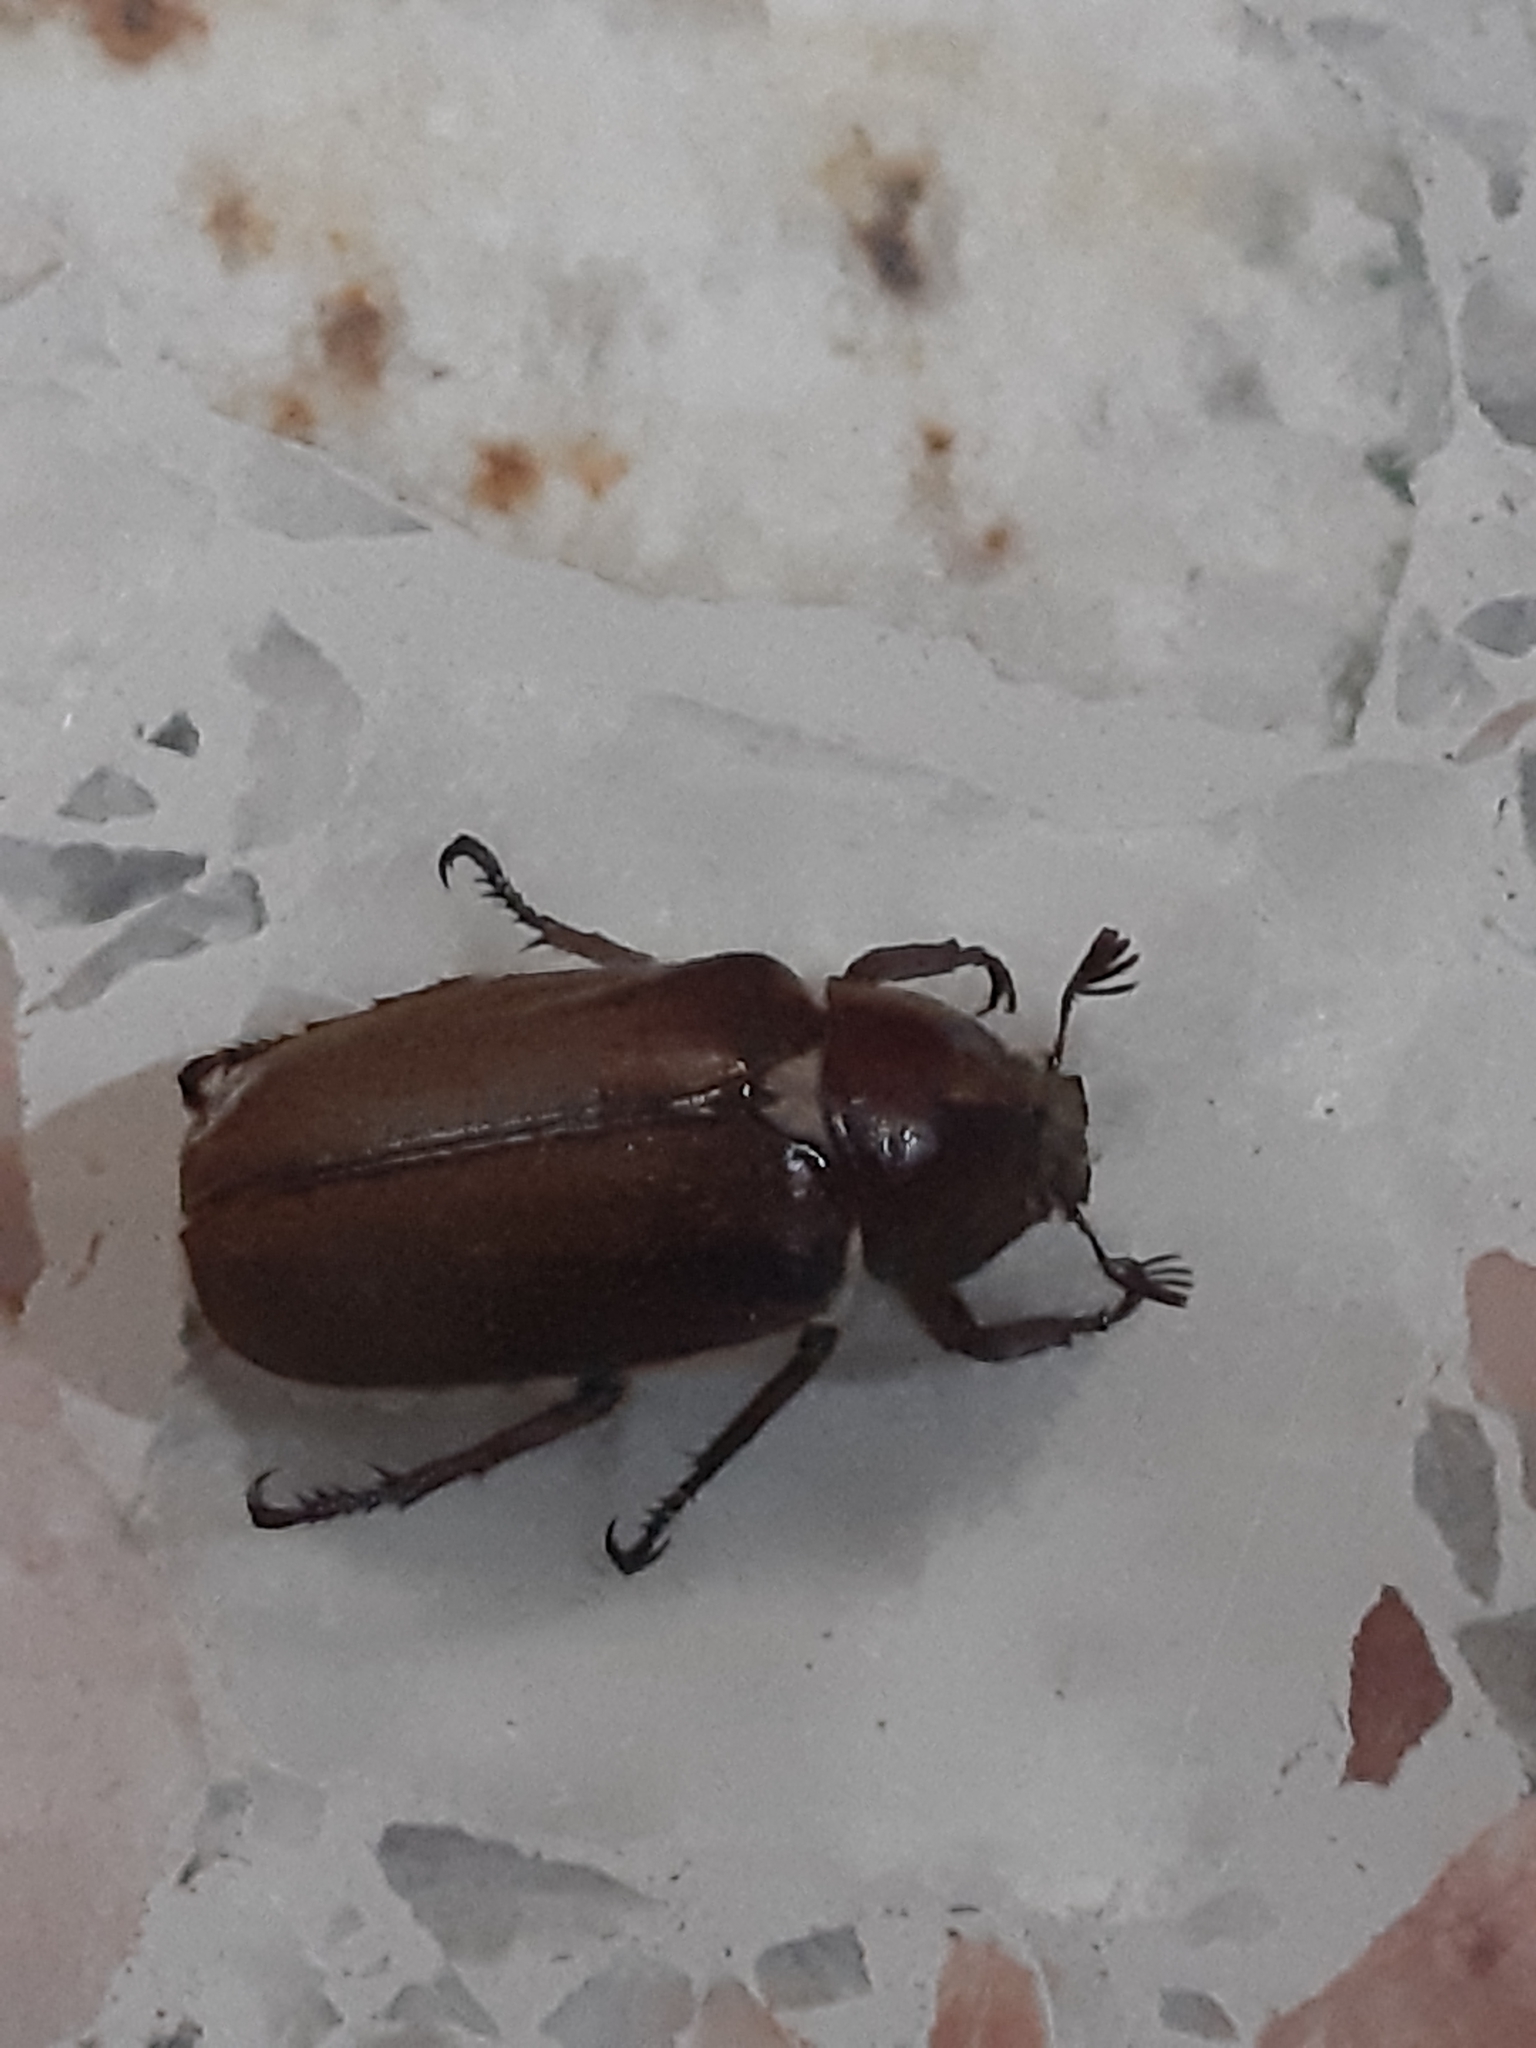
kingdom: Animalia
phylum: Arthropoda
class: Insecta
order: Coleoptera
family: Scarabaeidae
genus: Anoxia
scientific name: Anoxia villosa
